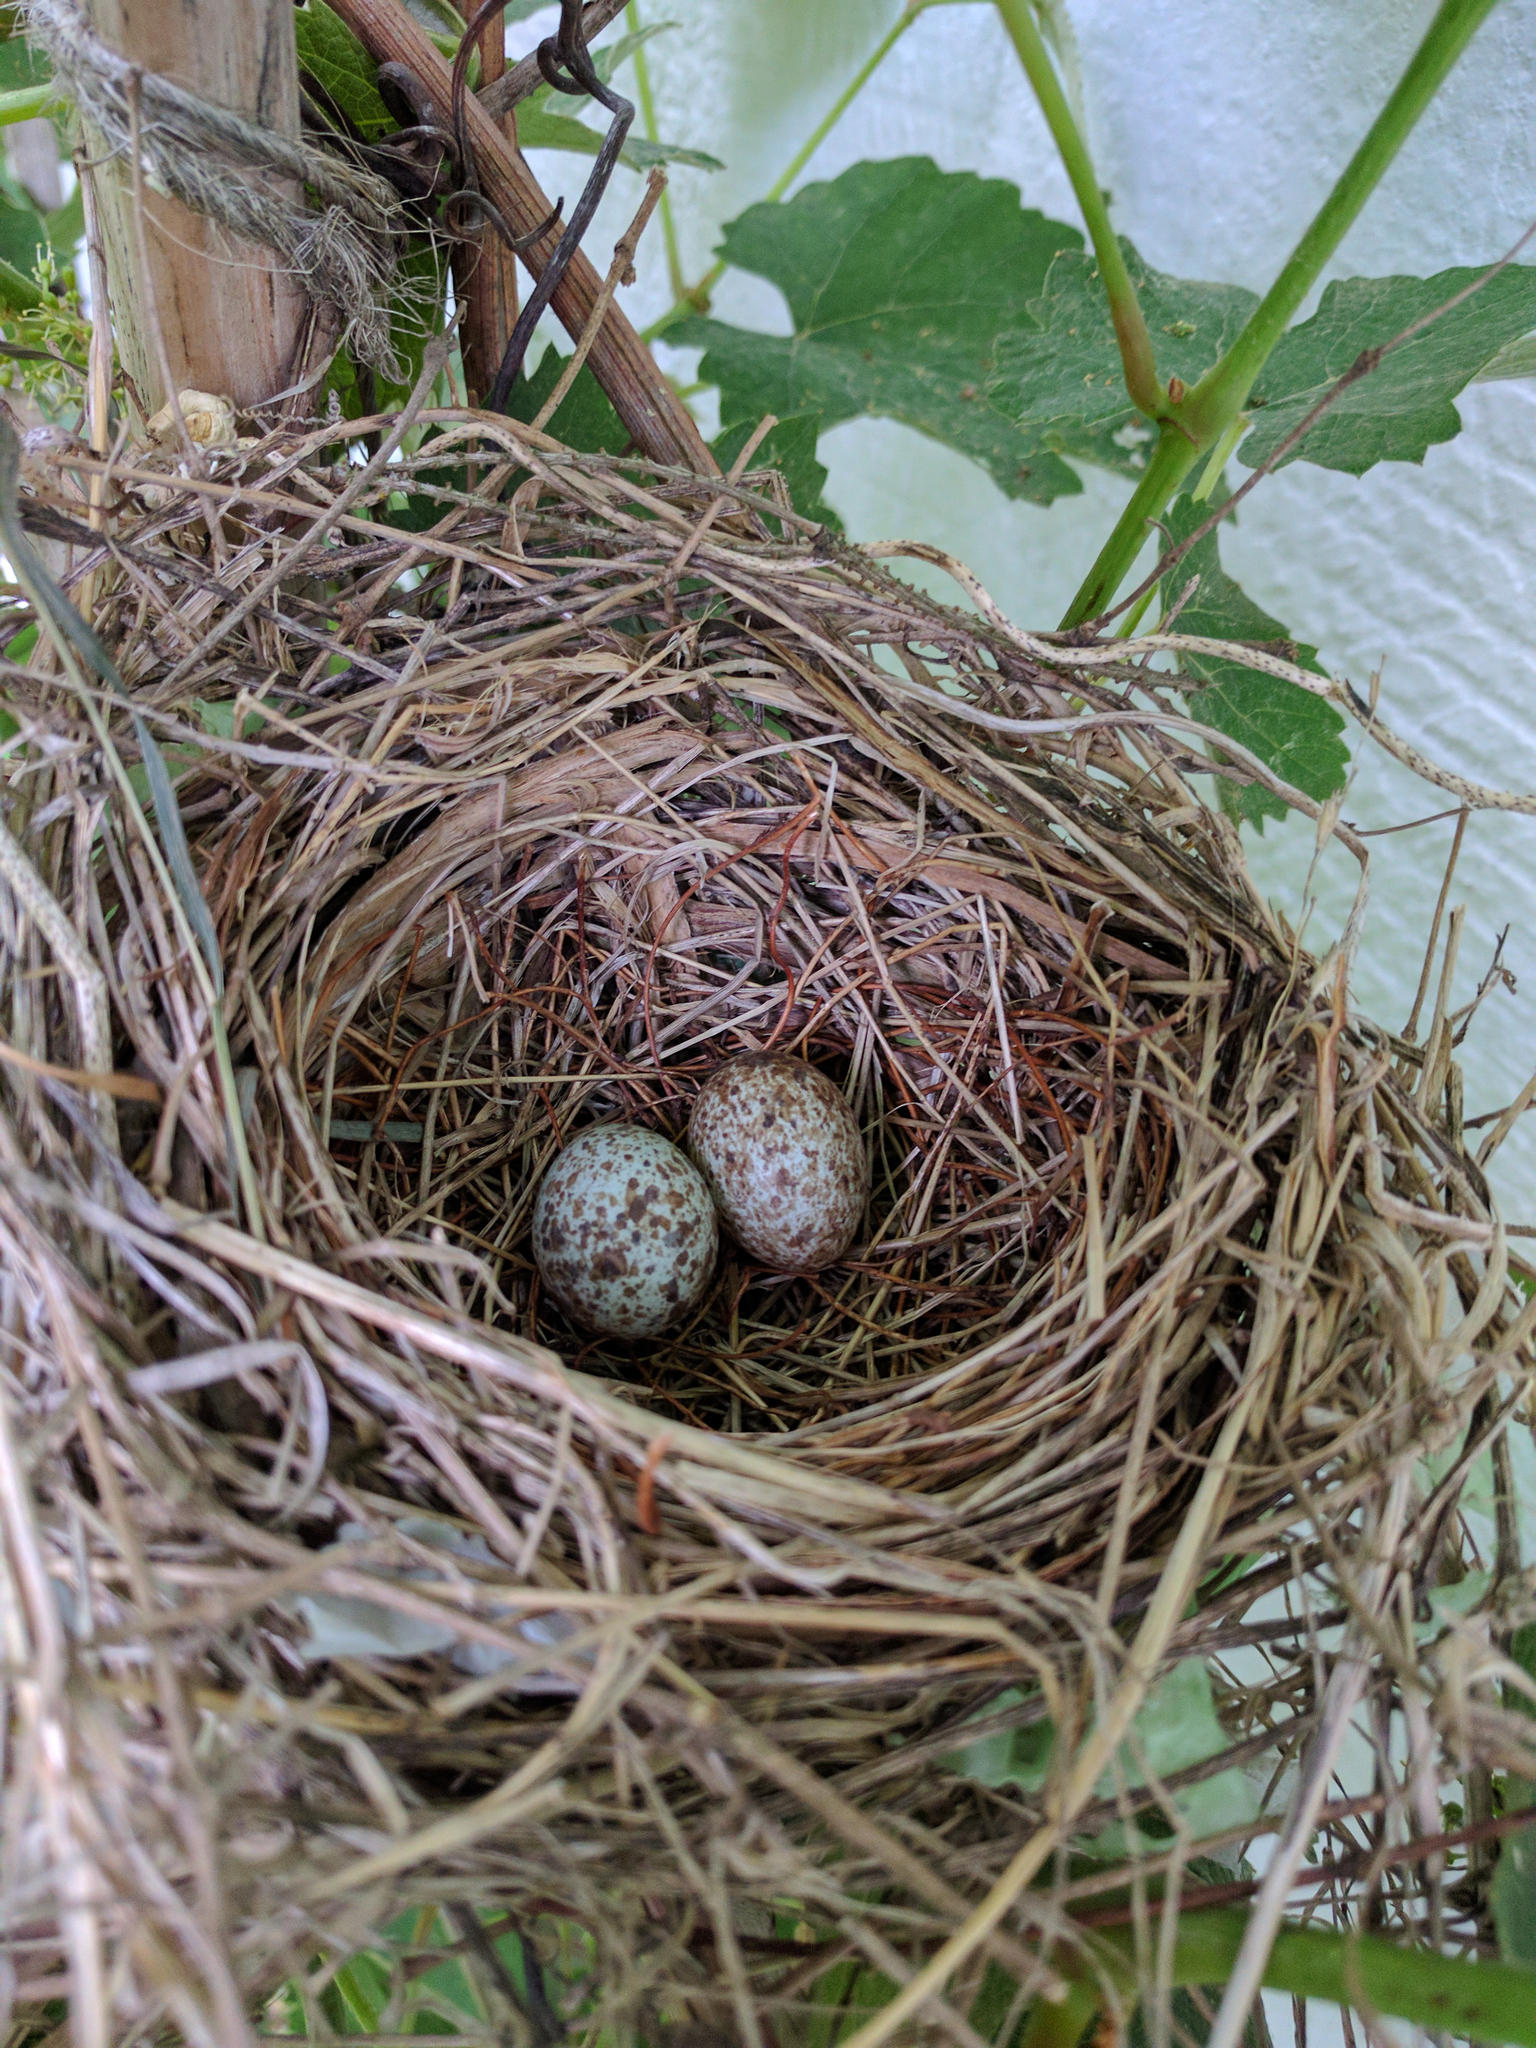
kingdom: Animalia
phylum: Chordata
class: Aves
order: Passeriformes
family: Cardinalidae
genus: Cardinalis
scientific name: Cardinalis cardinalis
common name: Northern cardinal
